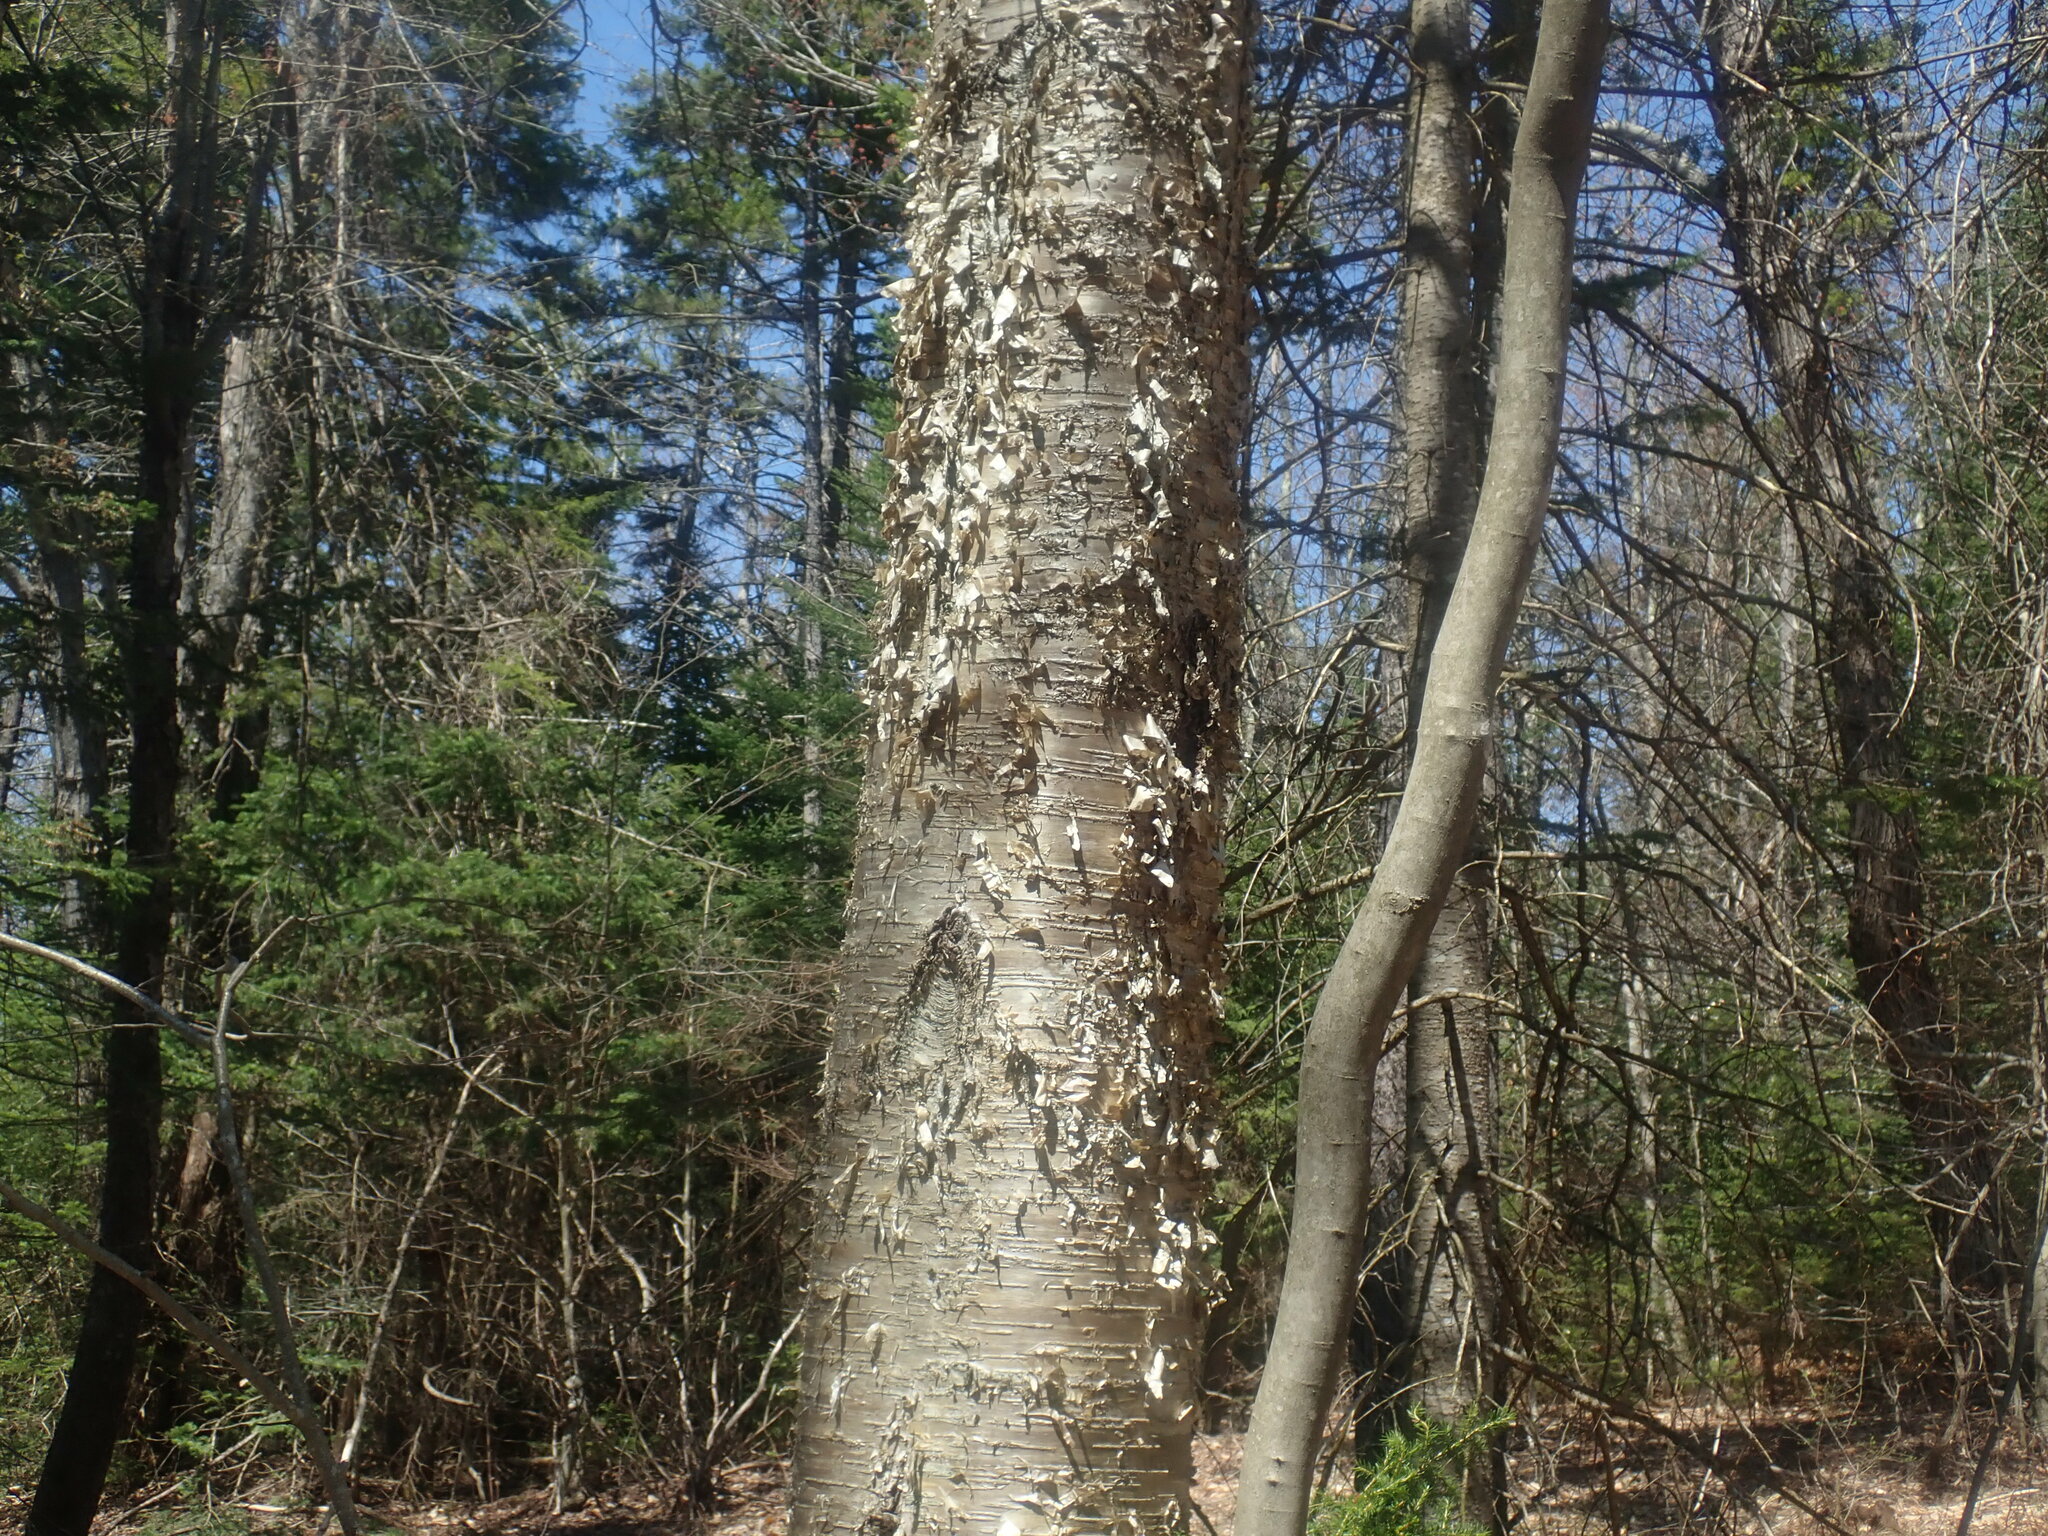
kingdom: Plantae
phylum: Tracheophyta
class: Magnoliopsida
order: Fagales
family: Betulaceae
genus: Betula
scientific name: Betula alleghaniensis
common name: Yellow birch
